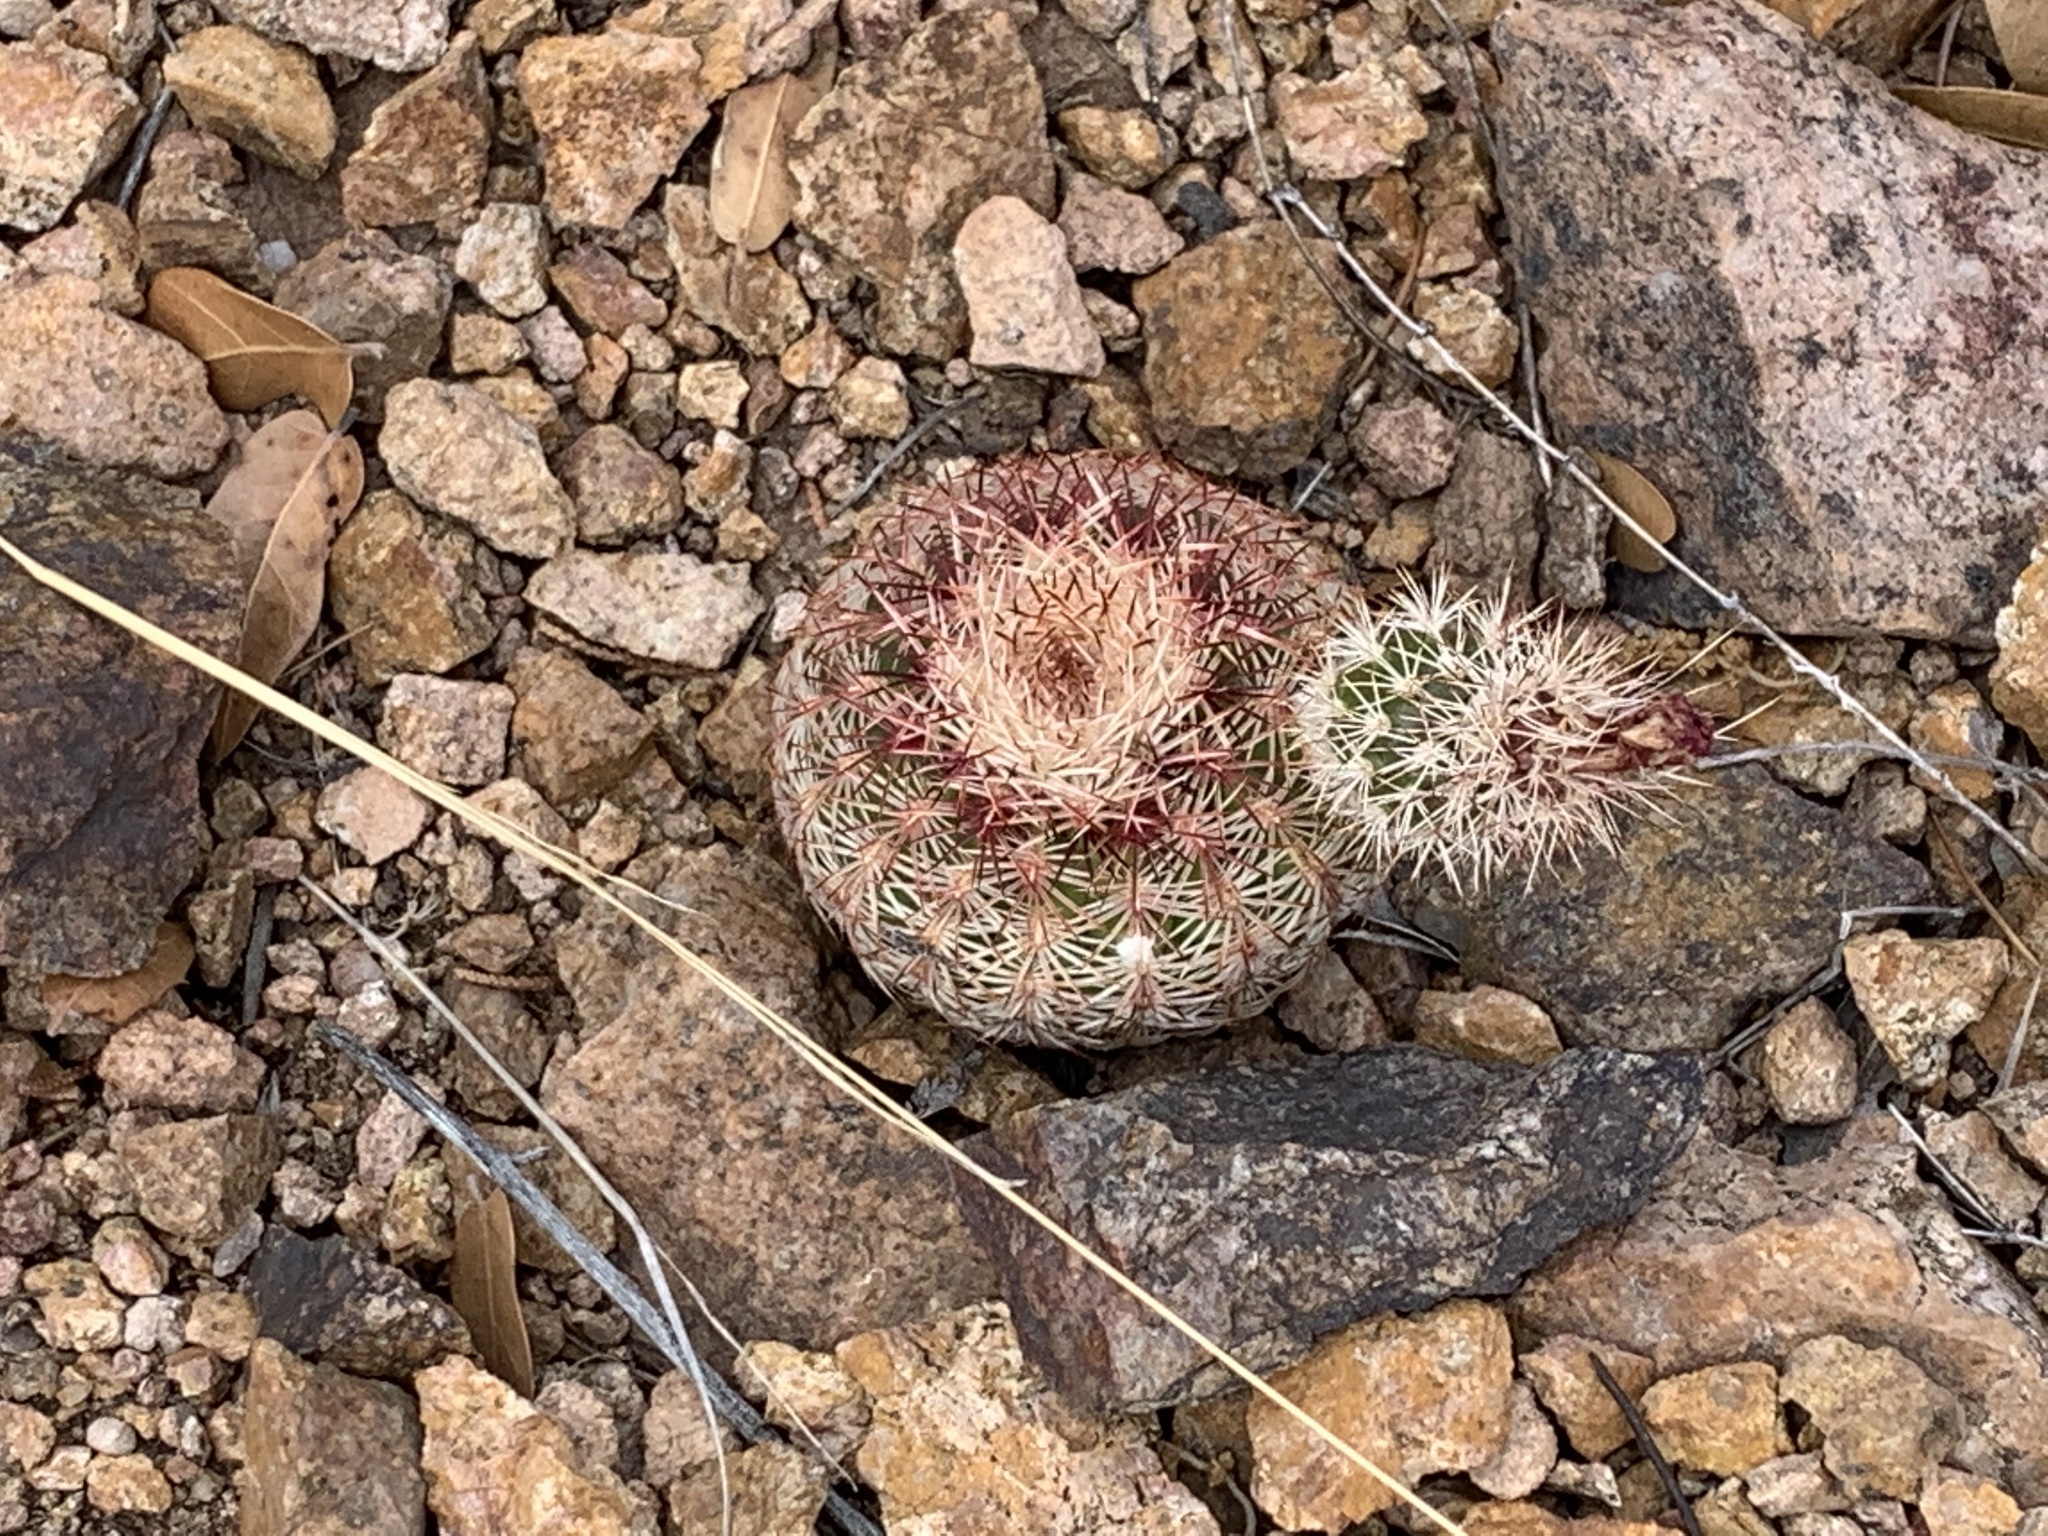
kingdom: Plantae
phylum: Tracheophyta
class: Magnoliopsida
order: Caryophyllales
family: Cactaceae
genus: Echinocereus
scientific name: Echinocereus rigidissimus
